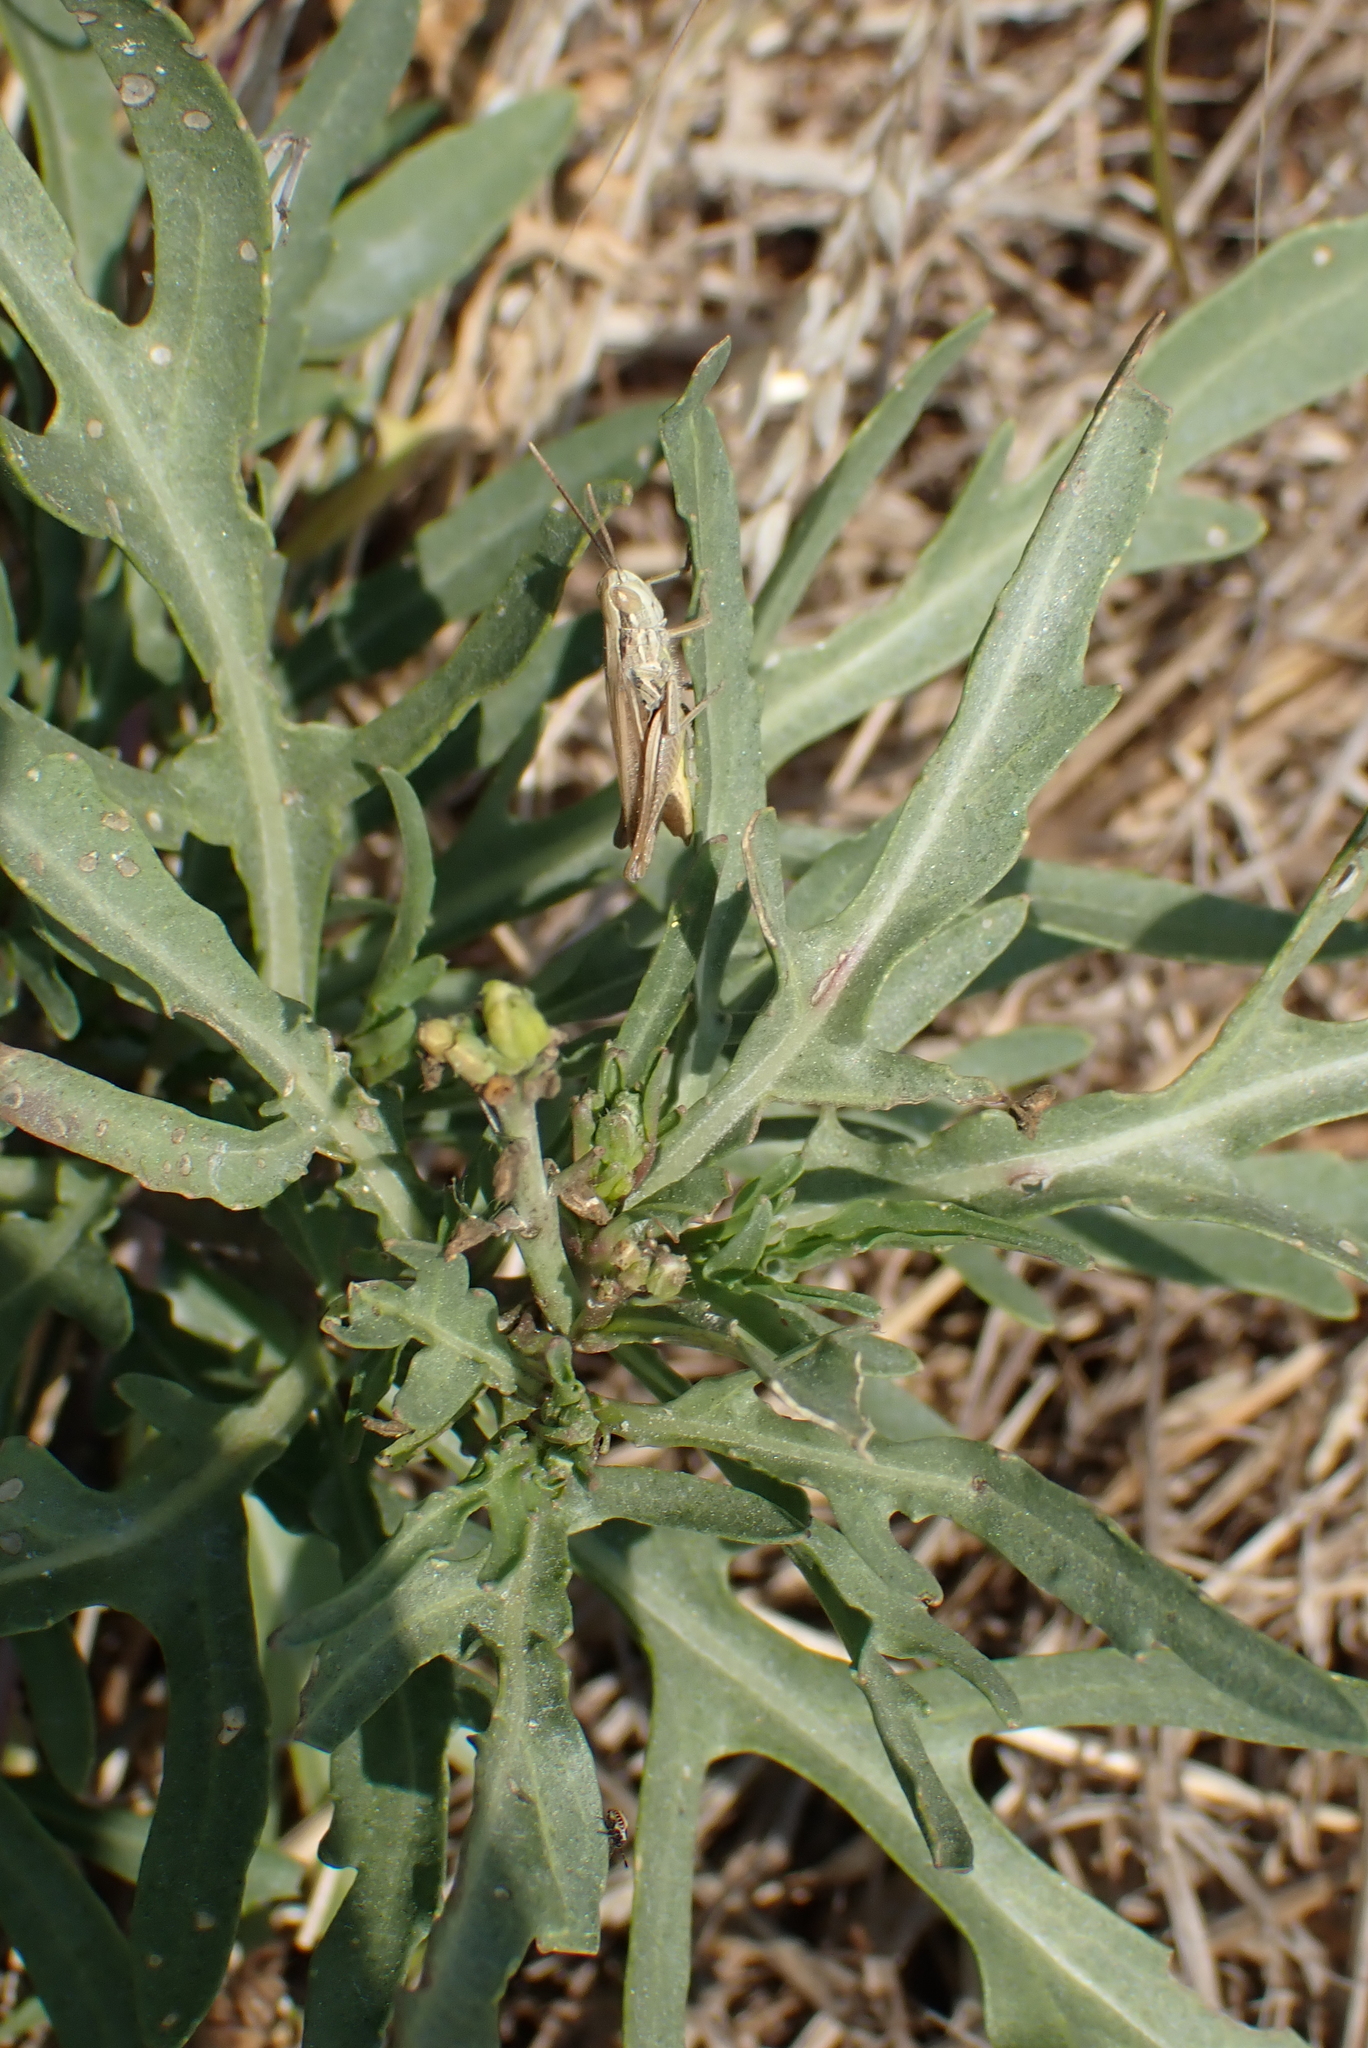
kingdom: Plantae
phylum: Tracheophyta
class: Magnoliopsida
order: Brassicales
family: Brassicaceae
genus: Diplotaxis
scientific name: Diplotaxis tenuifolia
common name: Perennial wall-rocket
